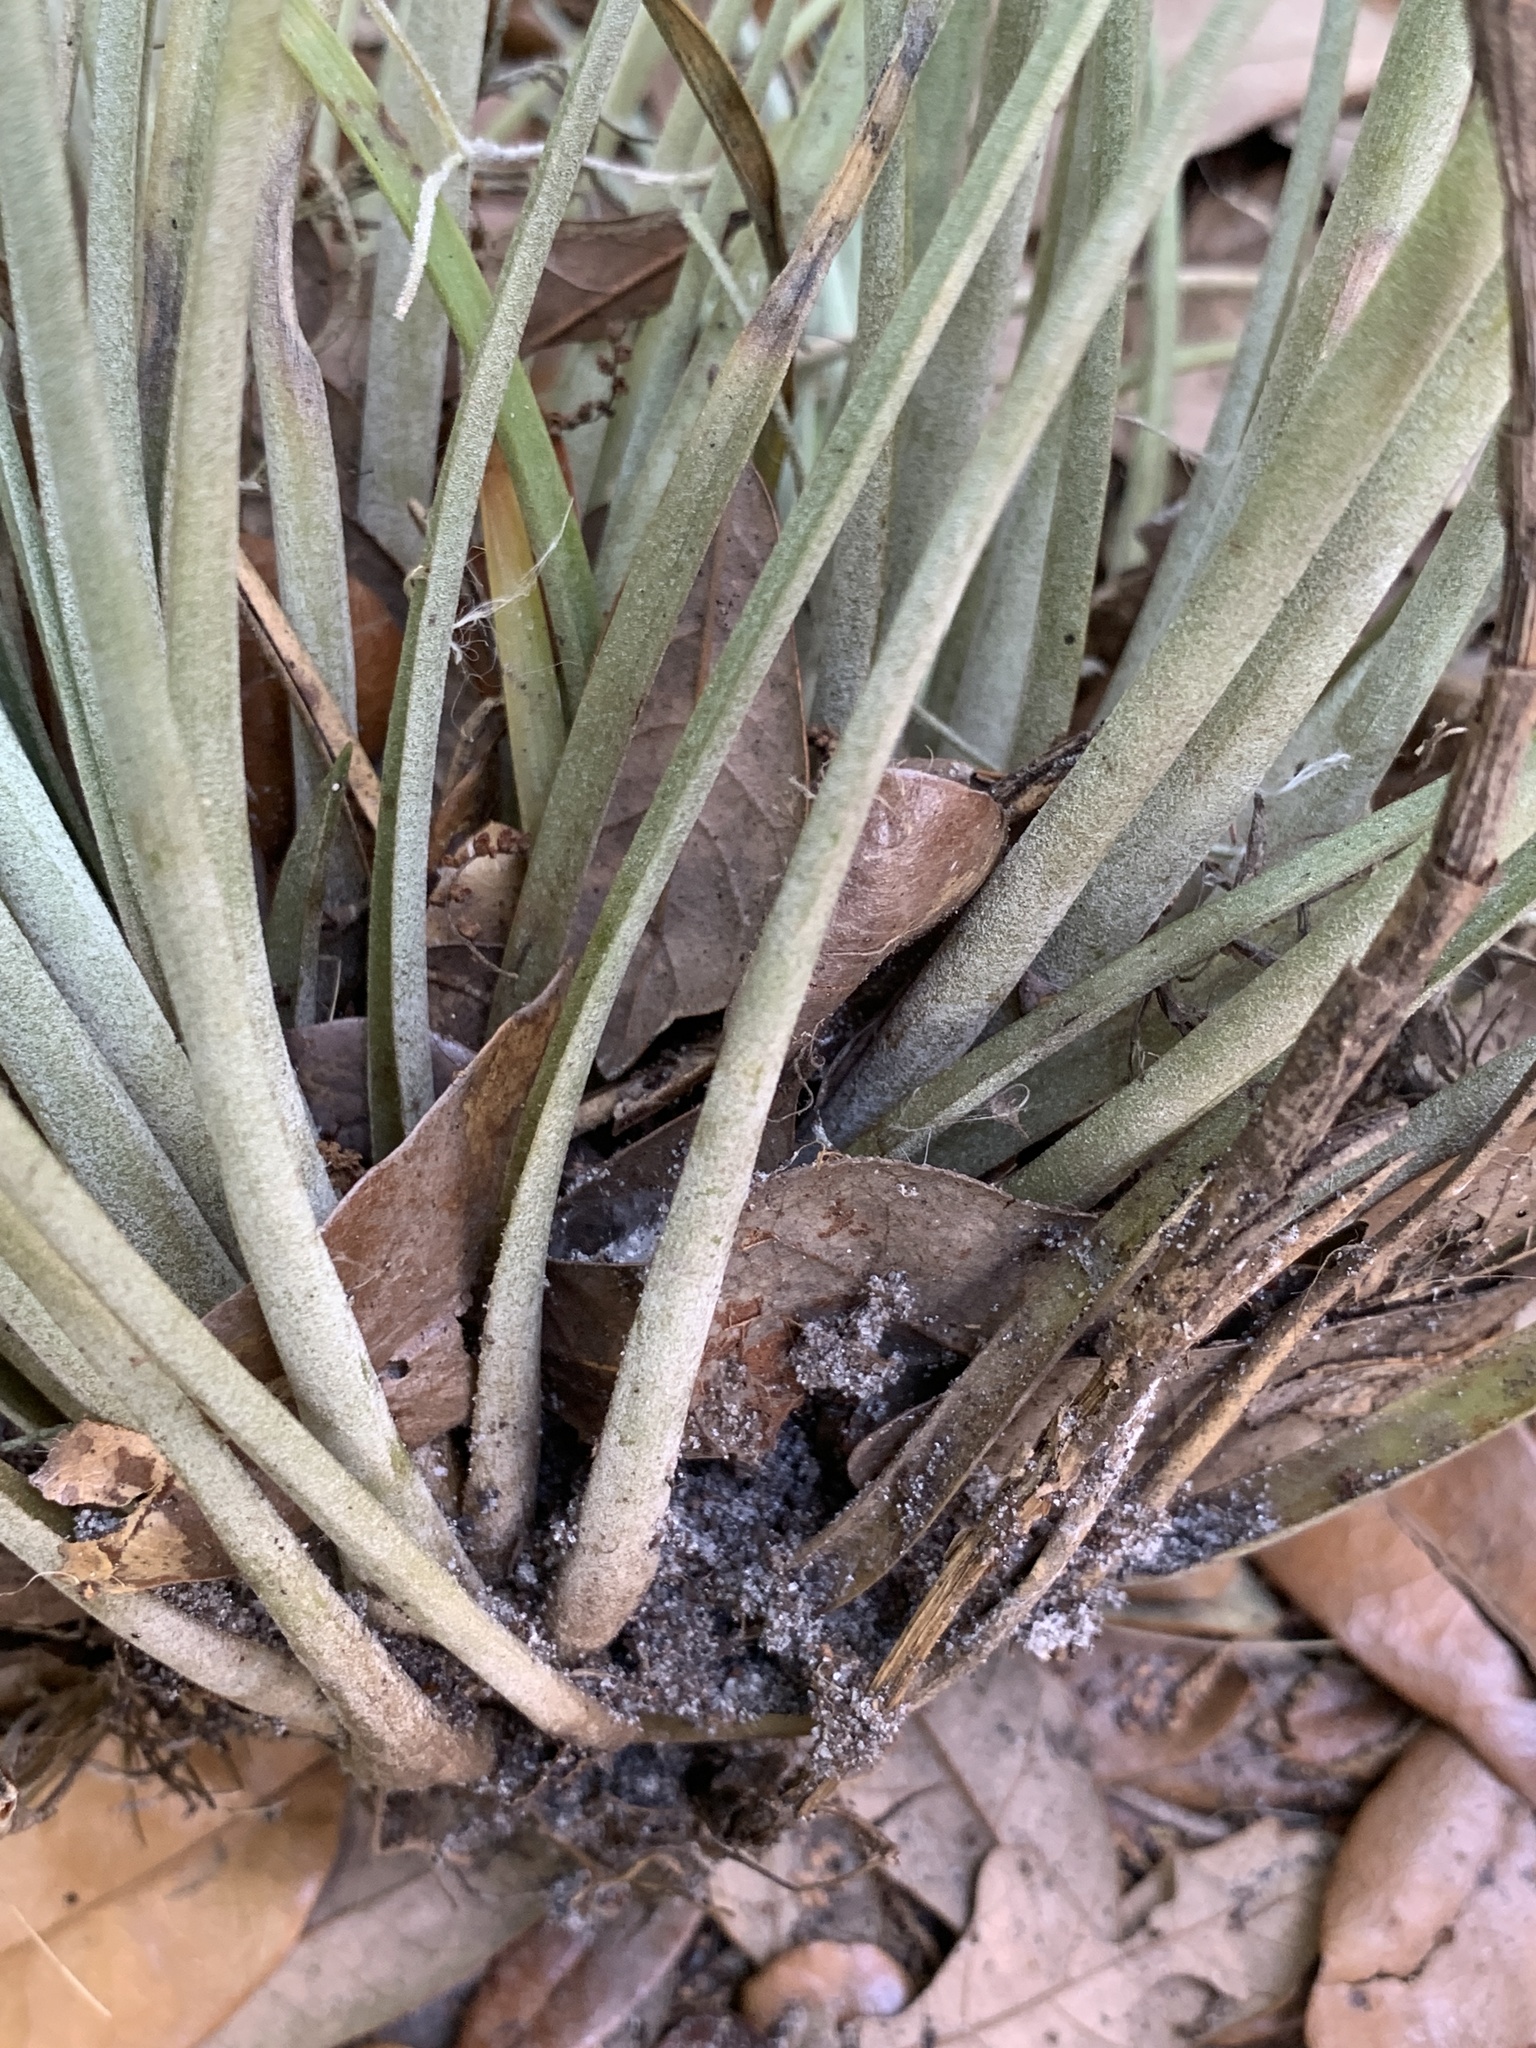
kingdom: Plantae
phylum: Tracheophyta
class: Liliopsida
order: Poales
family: Bromeliaceae
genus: Tillandsia
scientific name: Tillandsia simulata
